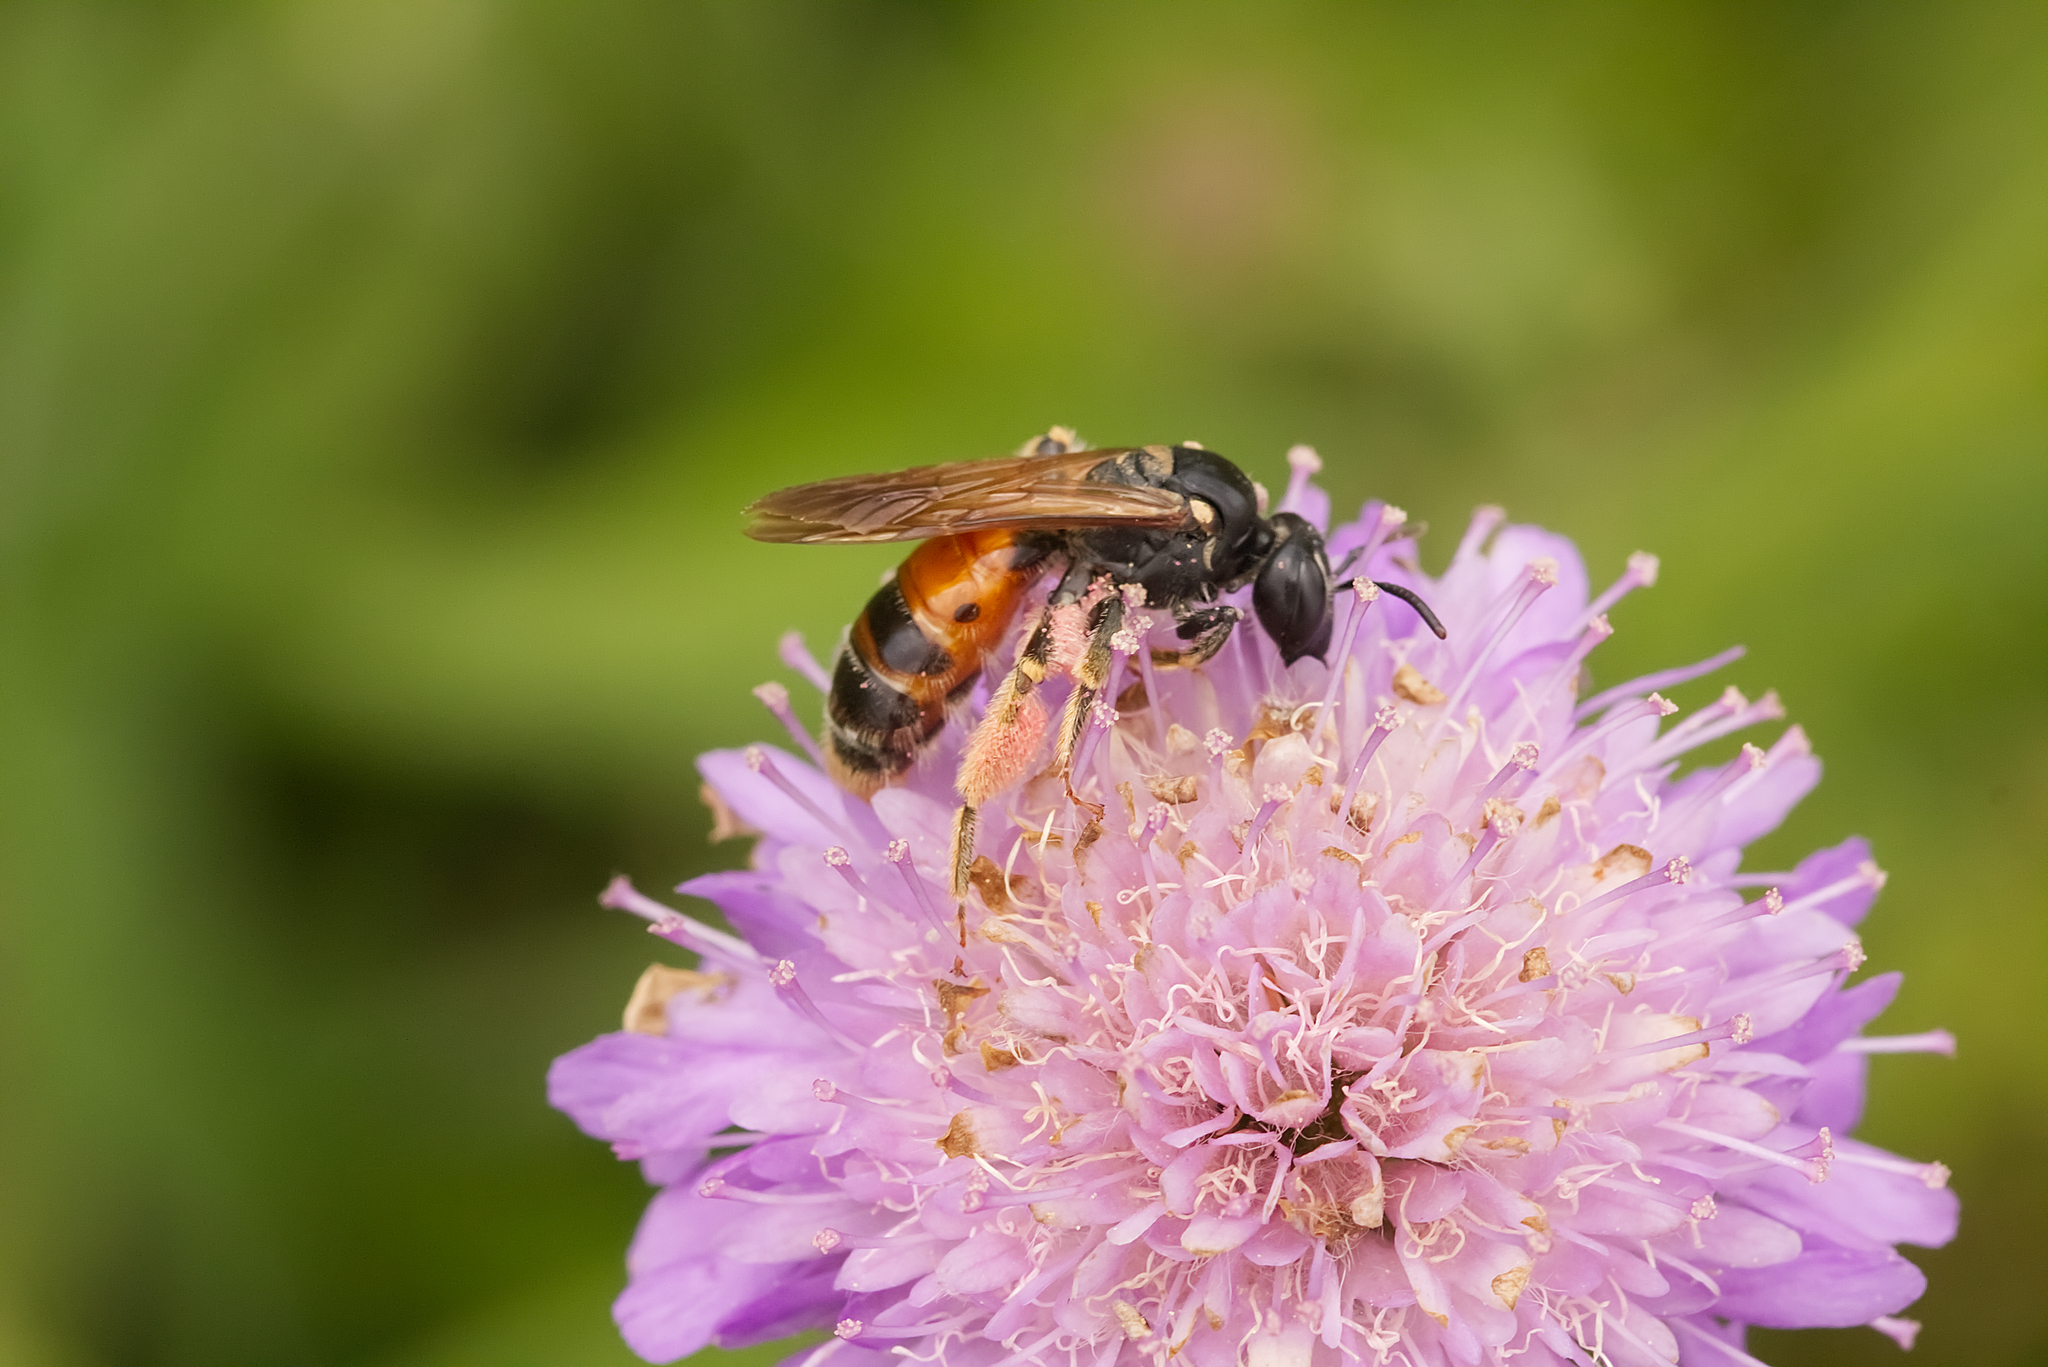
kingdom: Animalia
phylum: Arthropoda
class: Insecta
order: Hymenoptera
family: Andrenidae
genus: Andrena
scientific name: Andrena hattorfiana
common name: Large scabious mining bee
